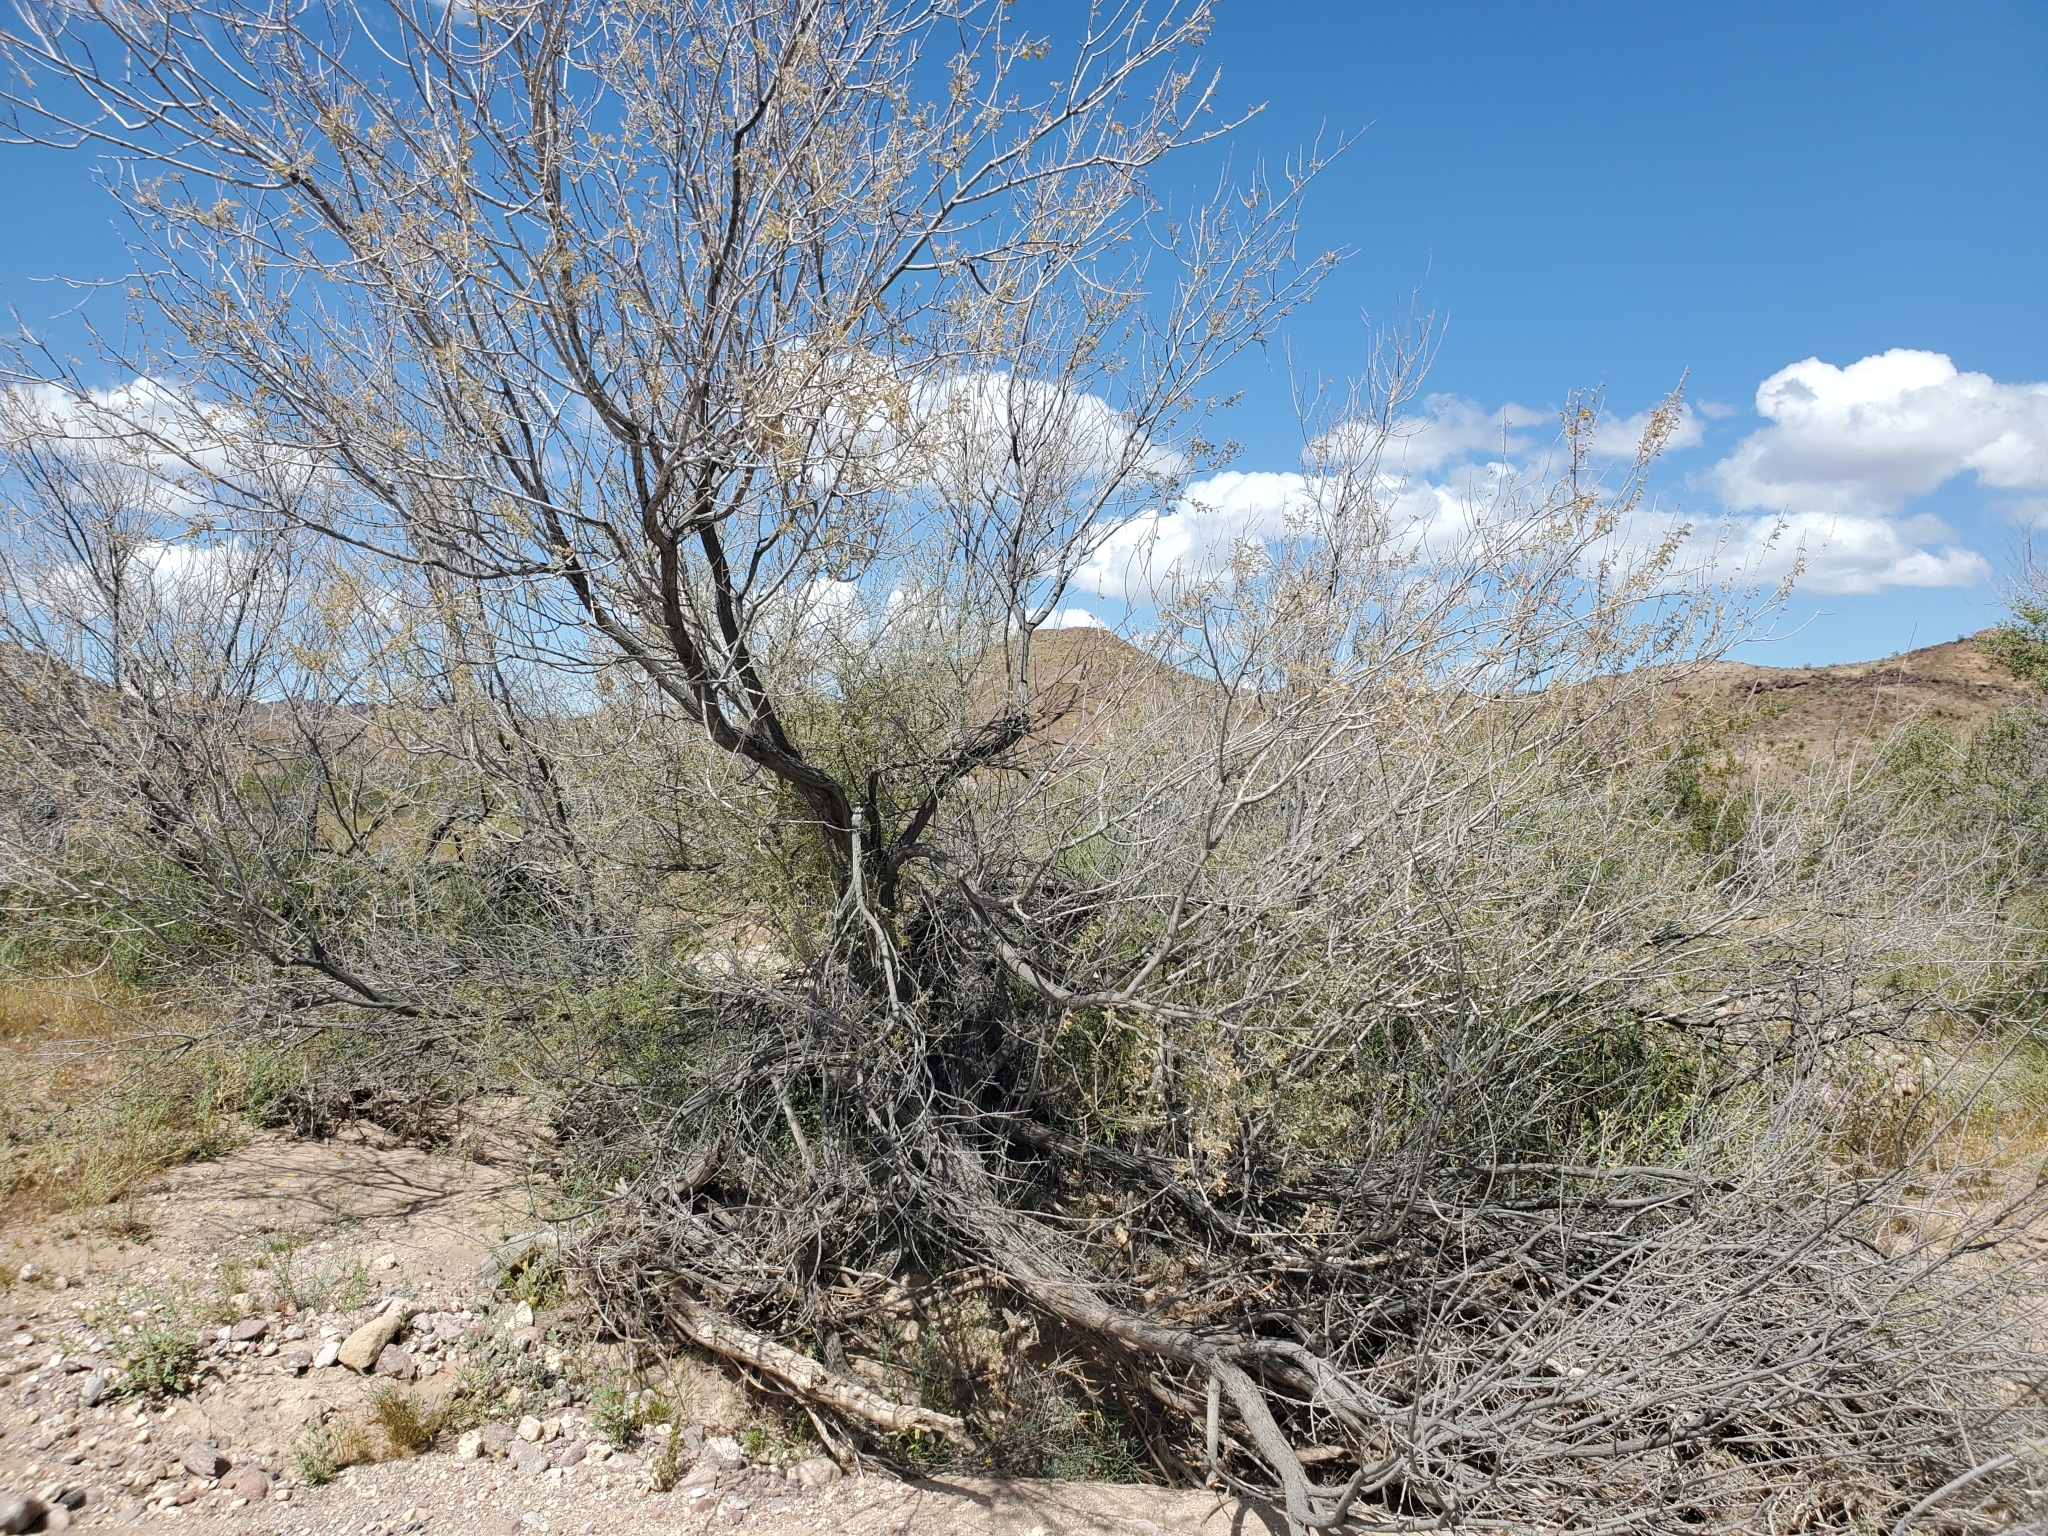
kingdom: Plantae
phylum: Tracheophyta
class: Magnoliopsida
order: Fabales
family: Fabaceae
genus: Senegalia
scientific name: Senegalia greggii
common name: Texas-mimosa
